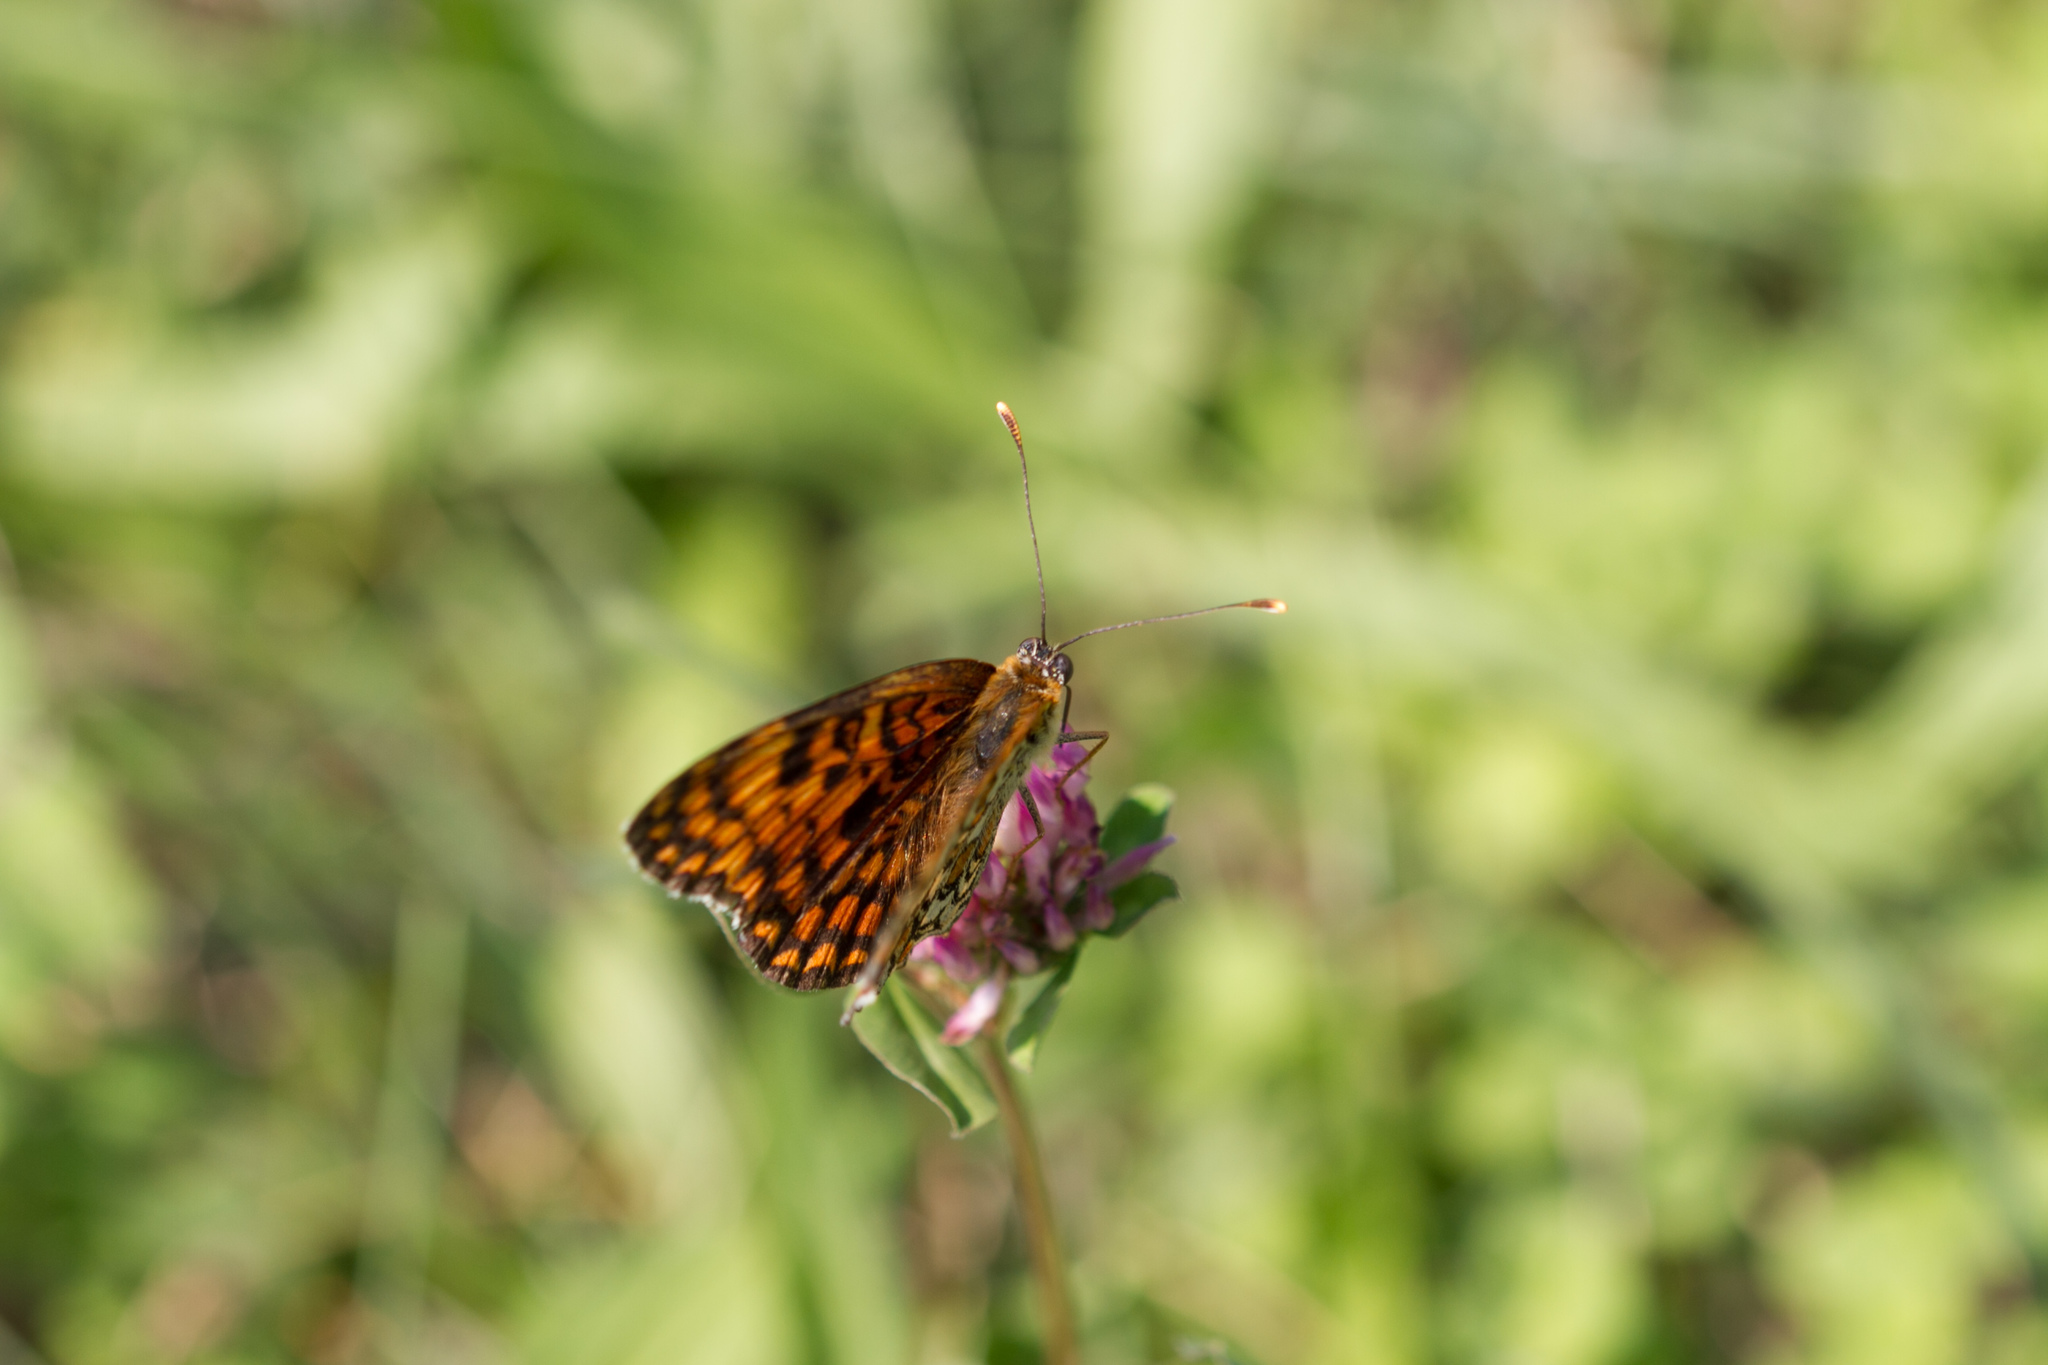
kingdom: Animalia
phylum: Arthropoda
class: Insecta
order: Lepidoptera
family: Nymphalidae
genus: Melitaea
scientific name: Melitaea phoebe
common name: Knapweed fritillary
